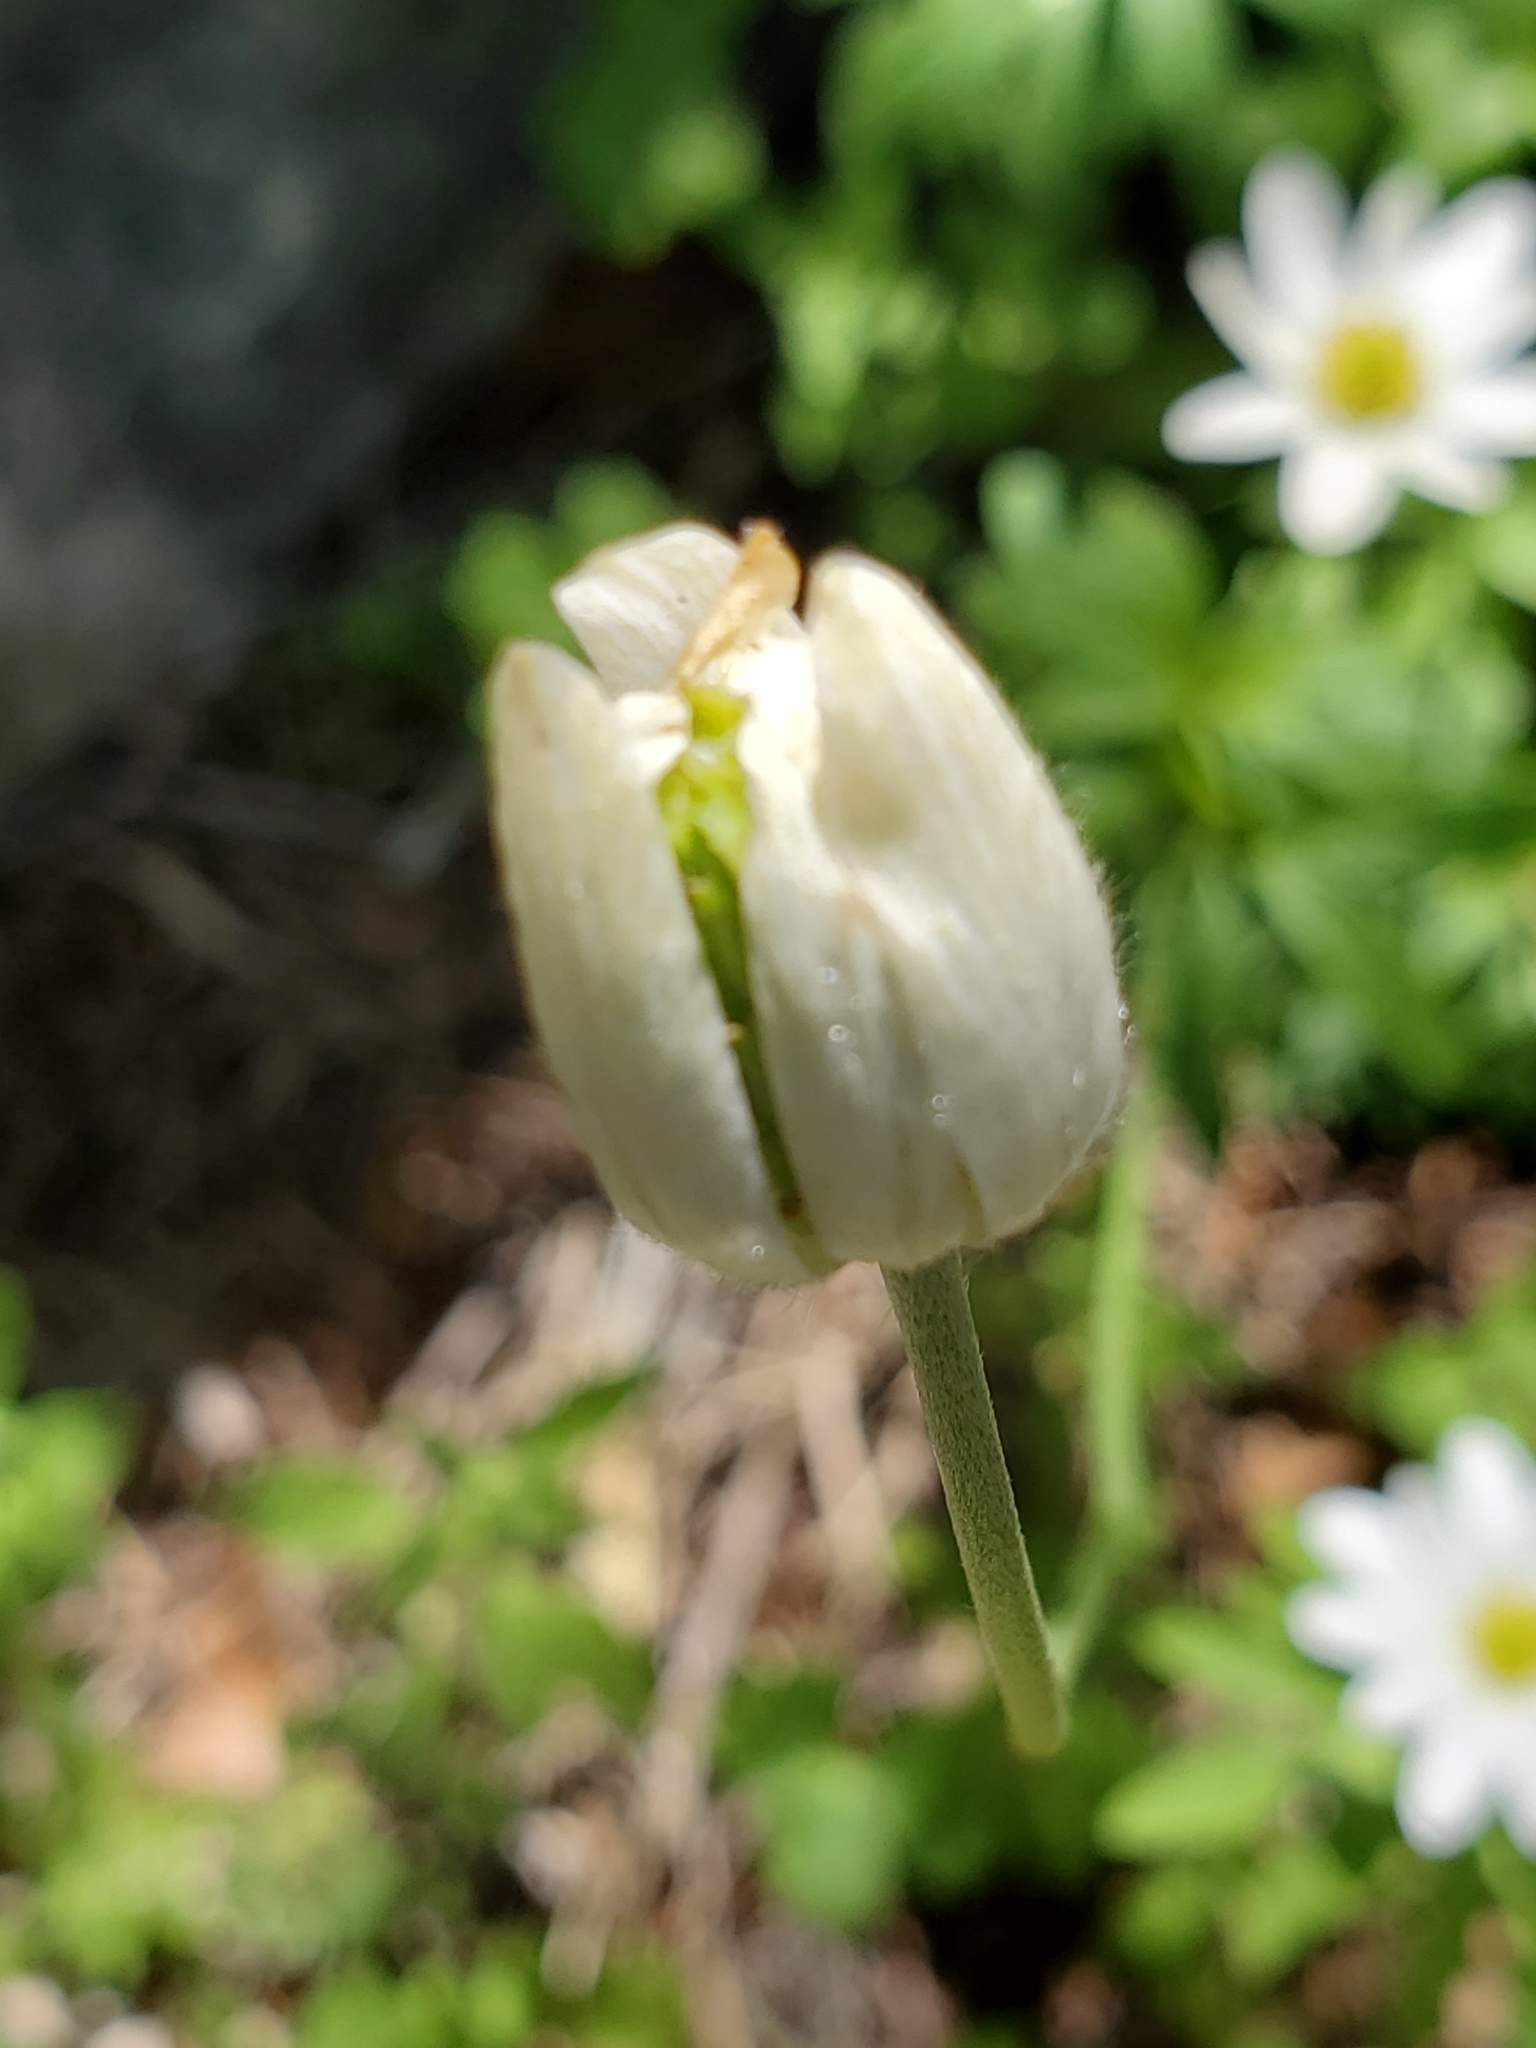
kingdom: Plantae
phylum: Tracheophyta
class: Magnoliopsida
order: Ranunculales
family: Ranunculaceae
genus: Anemone
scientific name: Anemone edwardsiana
